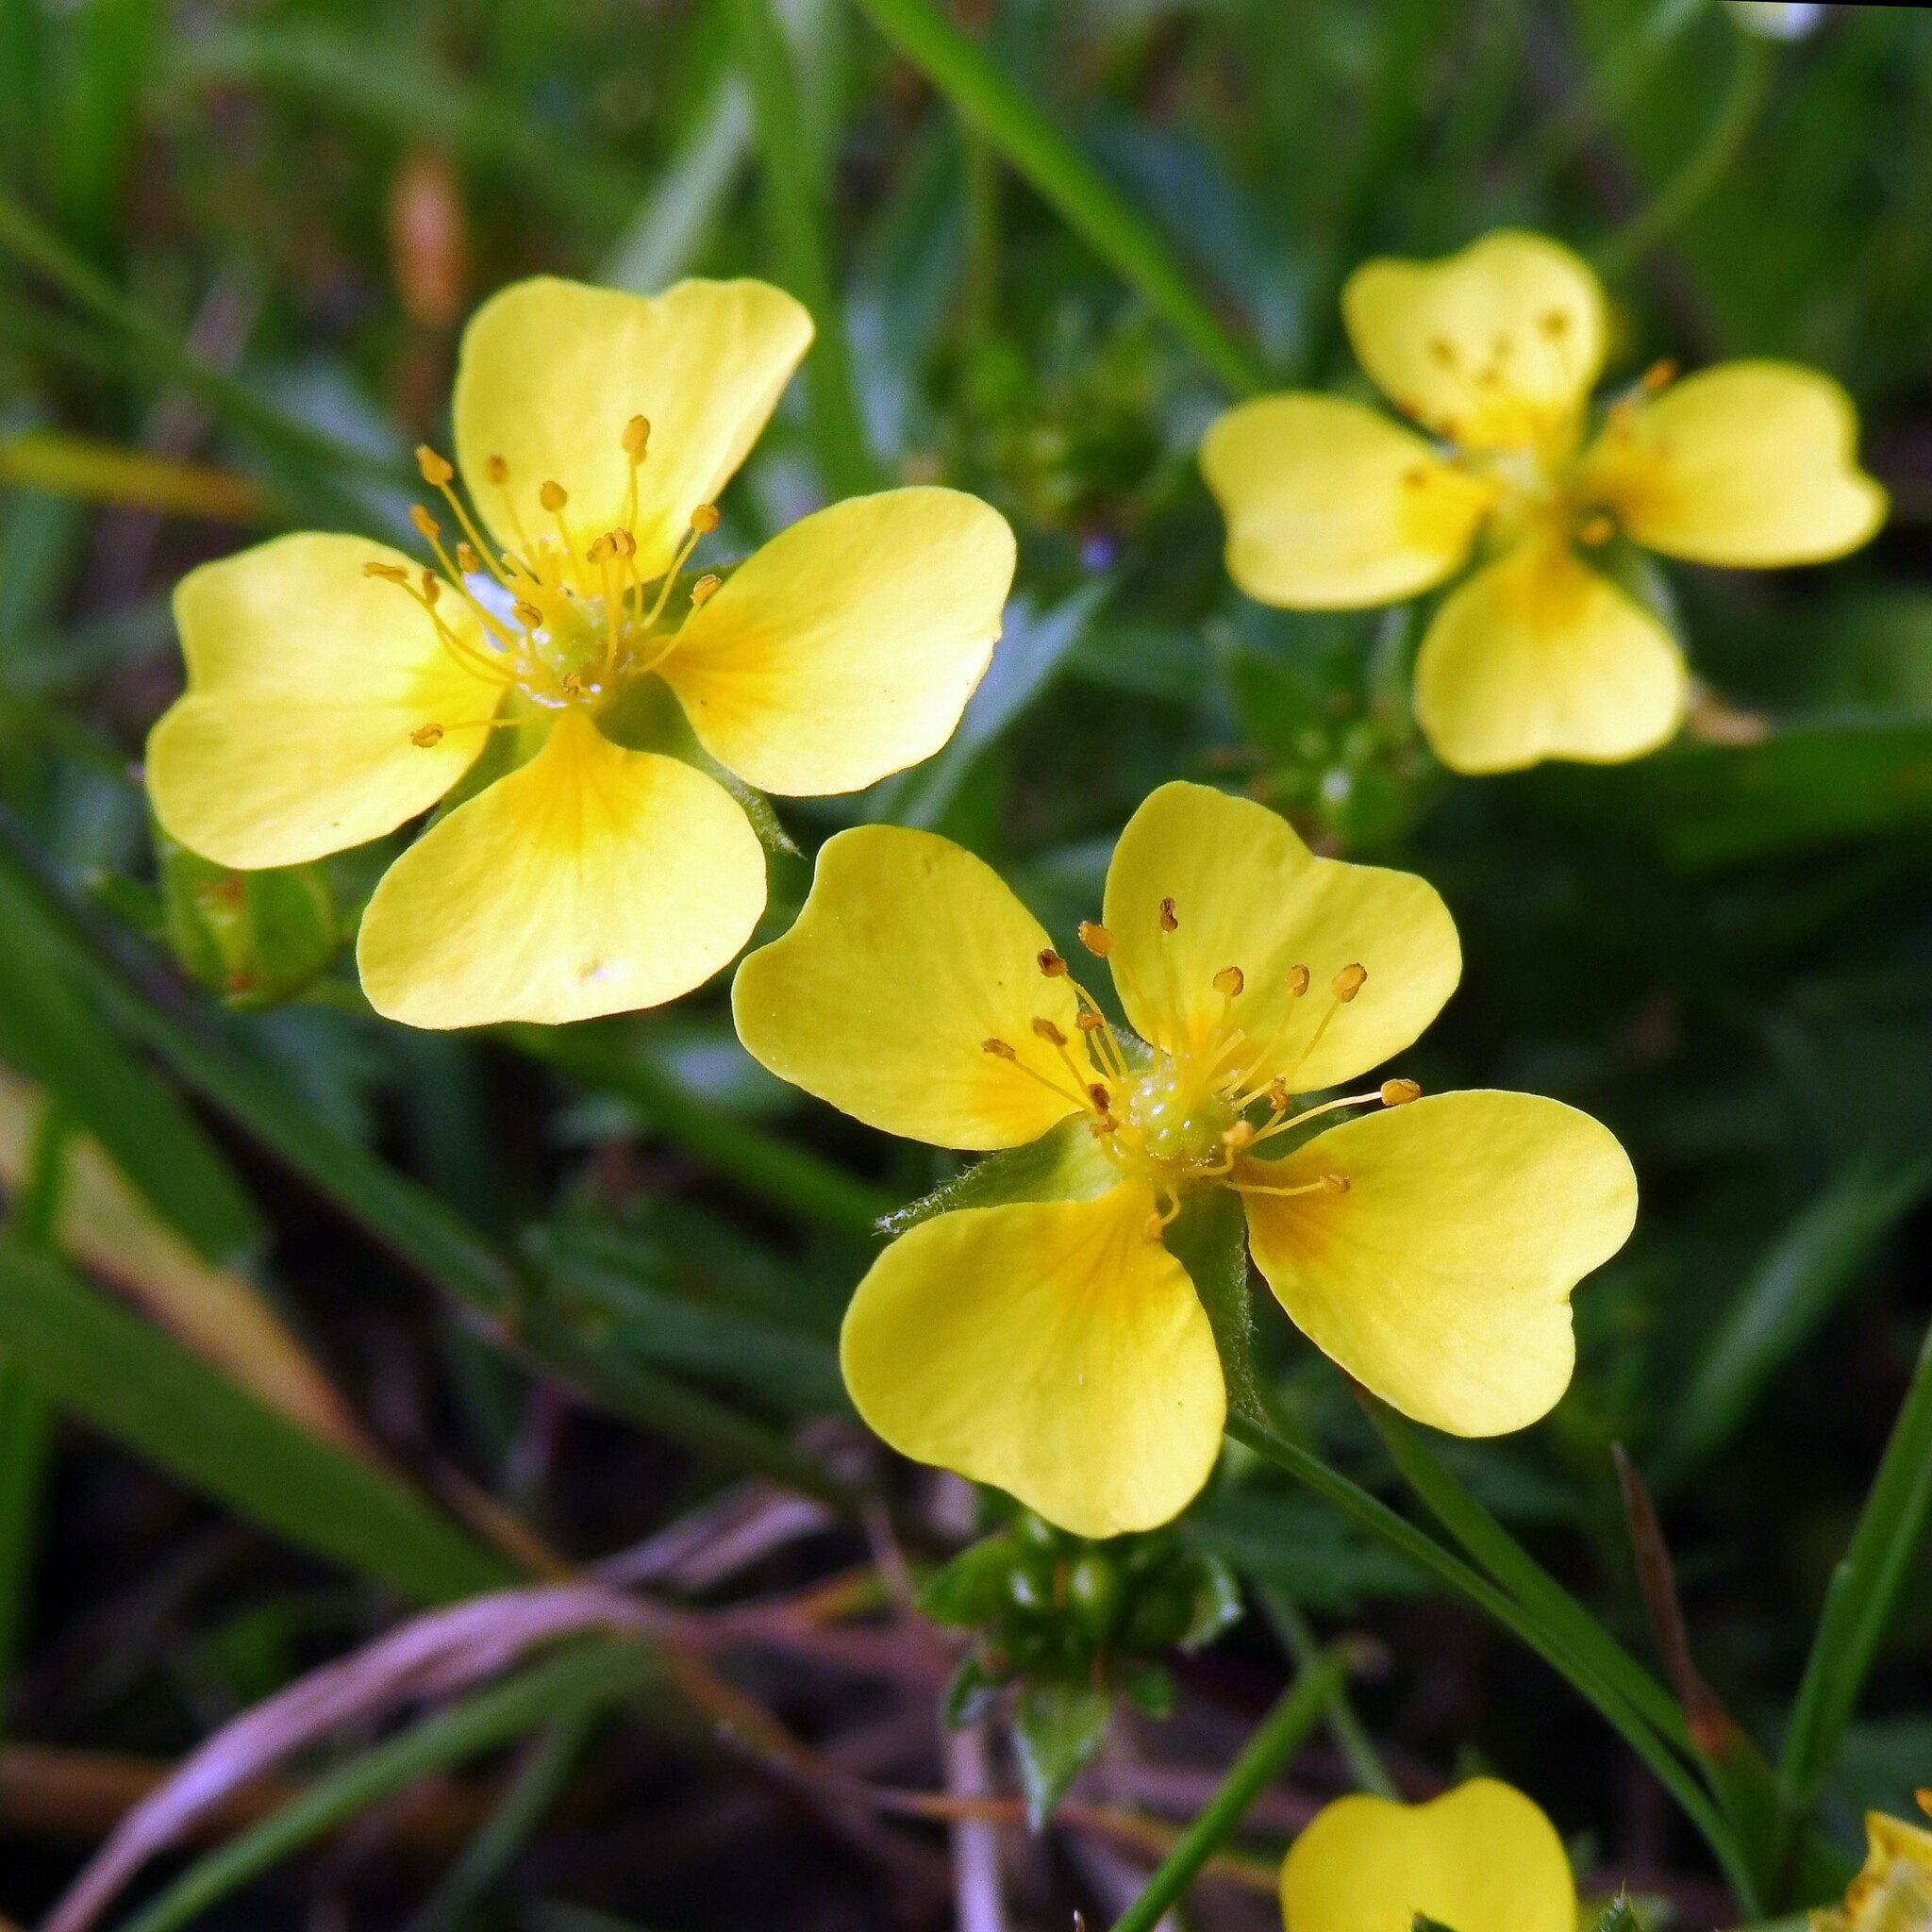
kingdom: Plantae
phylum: Tracheophyta
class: Magnoliopsida
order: Rosales
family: Rosaceae
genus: Potentilla
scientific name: Potentilla erecta
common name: Tormentil
